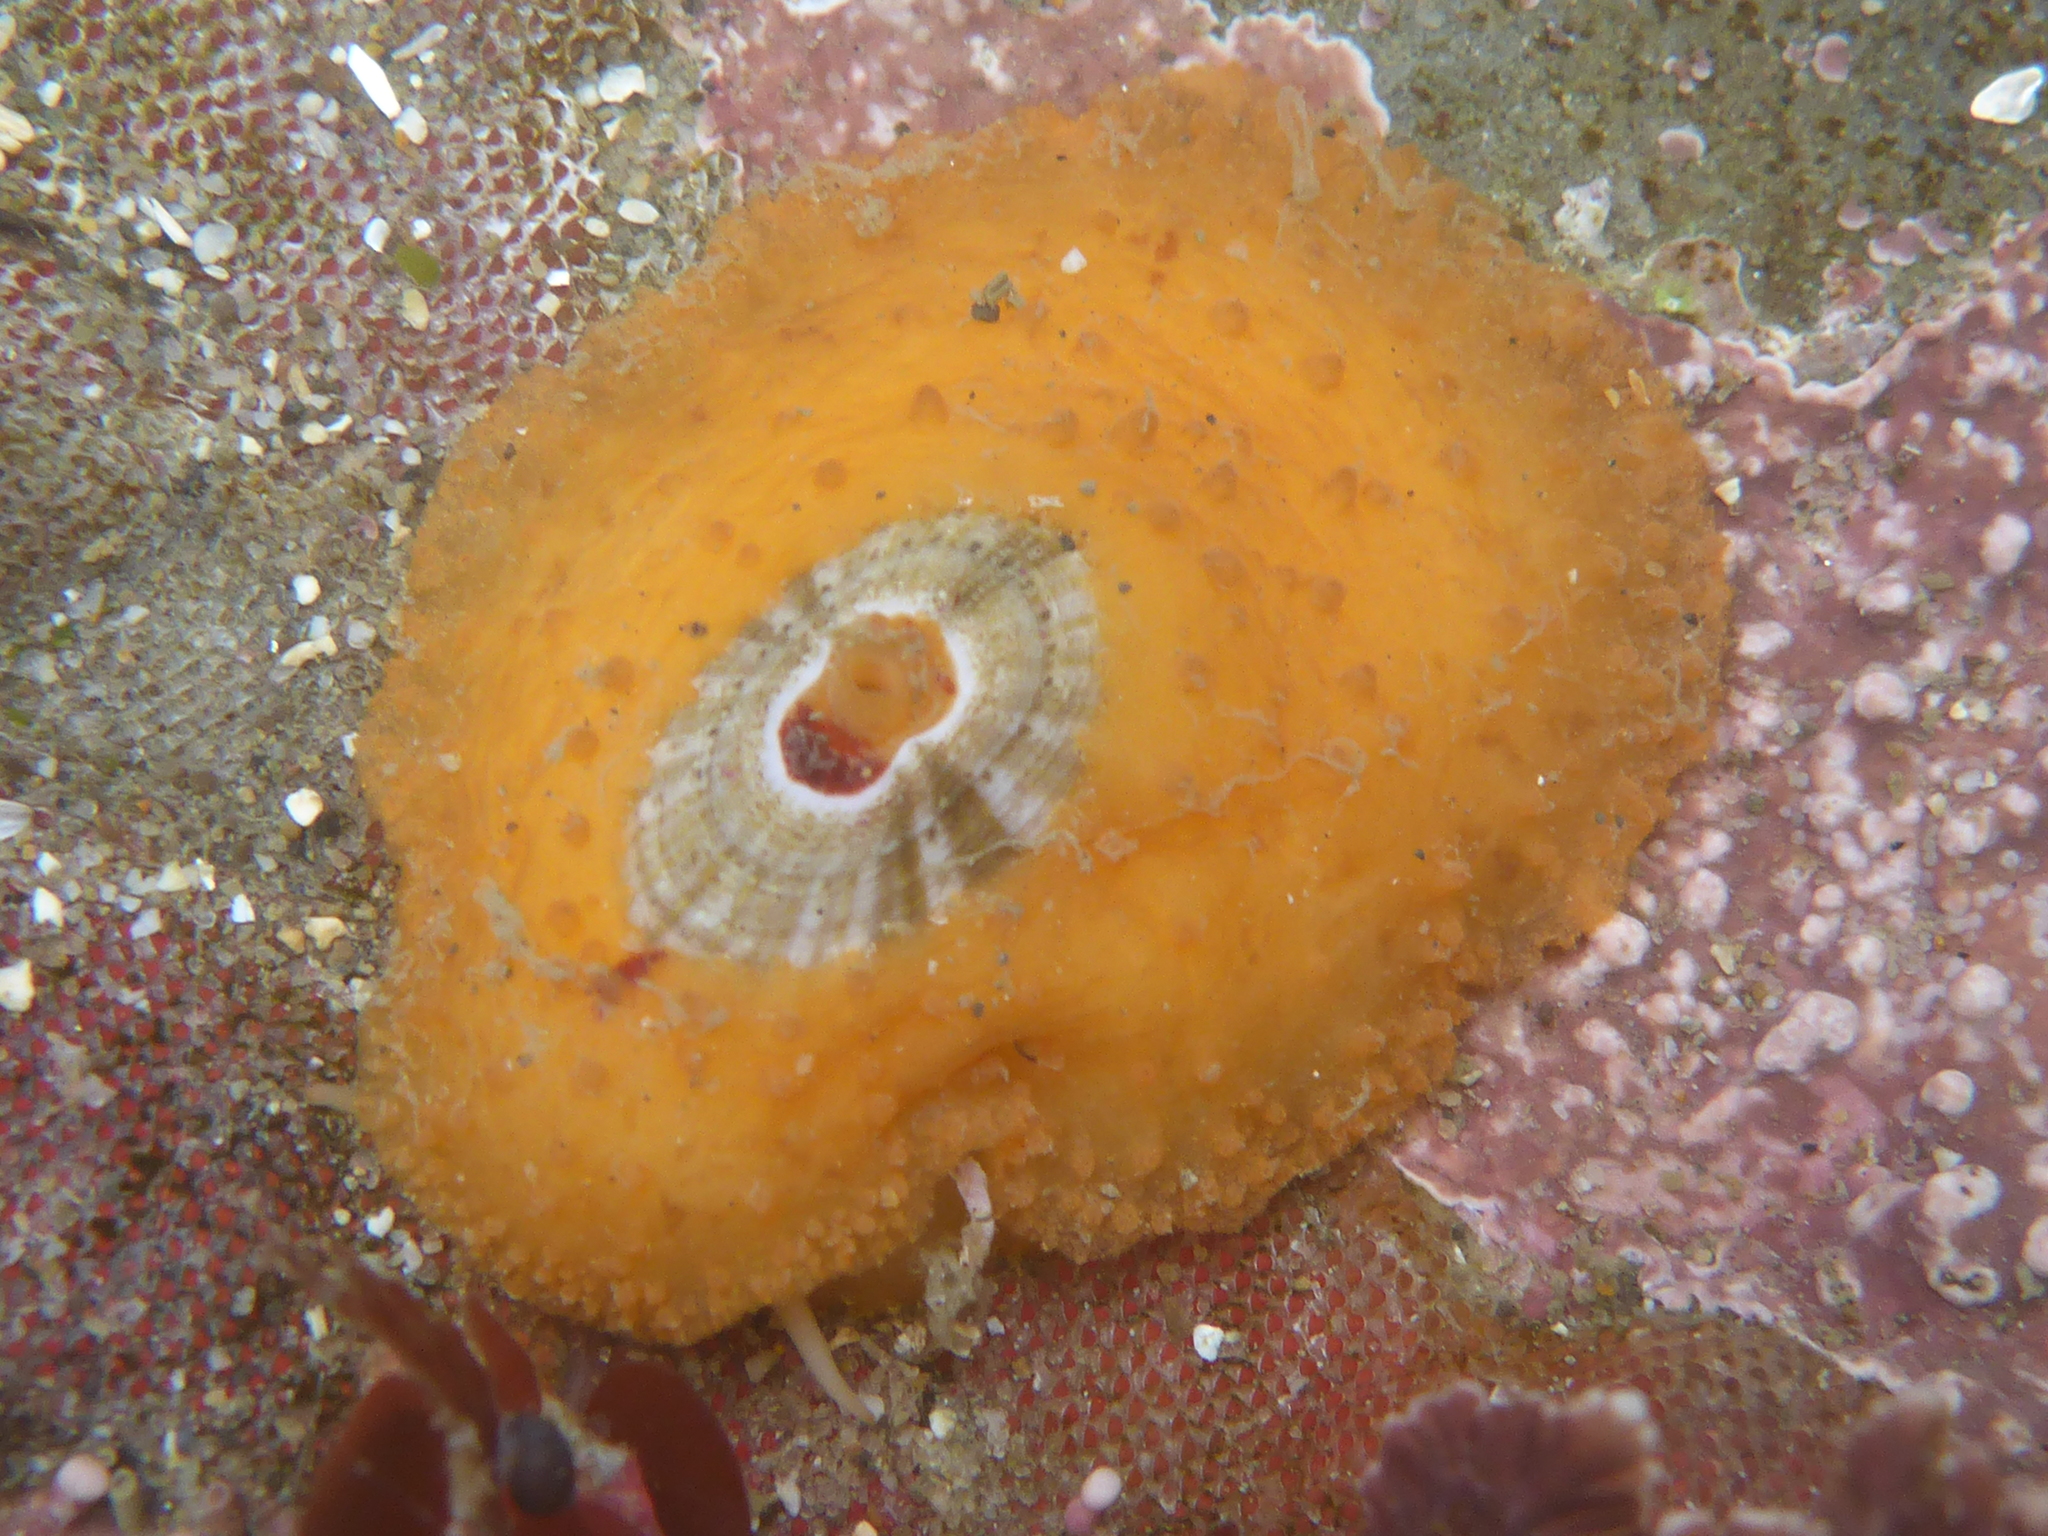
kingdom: Animalia
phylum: Mollusca
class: Gastropoda
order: Lepetellida
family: Fissurellidae
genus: Fissurellidea
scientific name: Fissurellidea bimaculata
